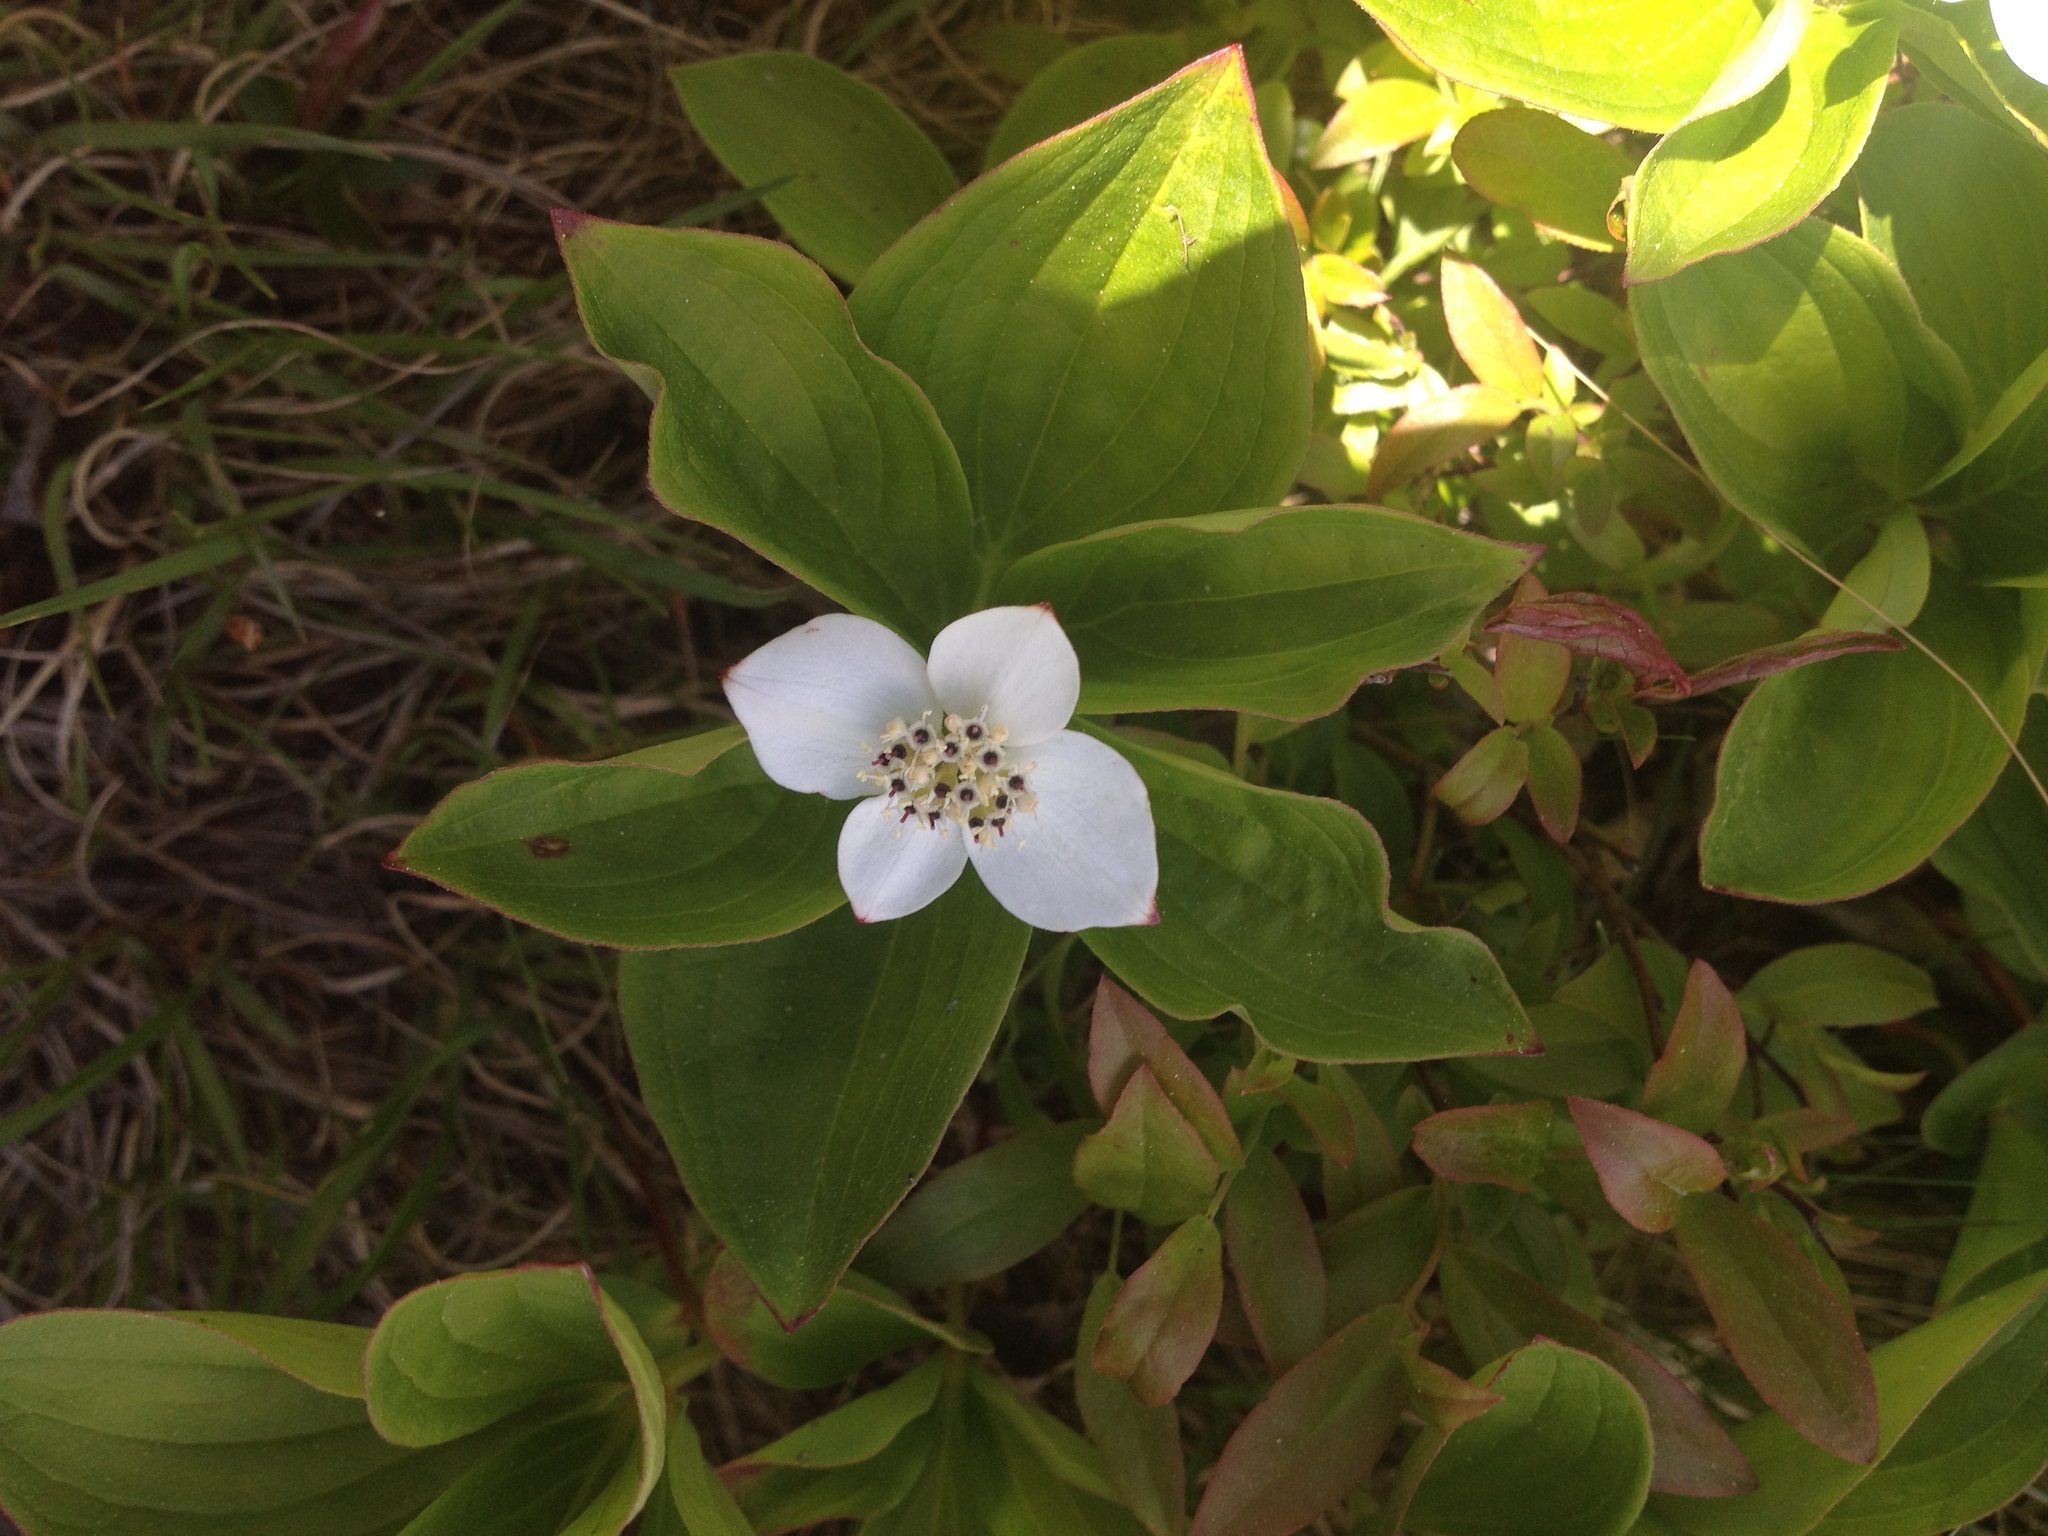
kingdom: Plantae
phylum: Tracheophyta
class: Magnoliopsida
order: Cornales
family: Cornaceae
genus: Cornus
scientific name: Cornus canadensis
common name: Creeping dogwood
